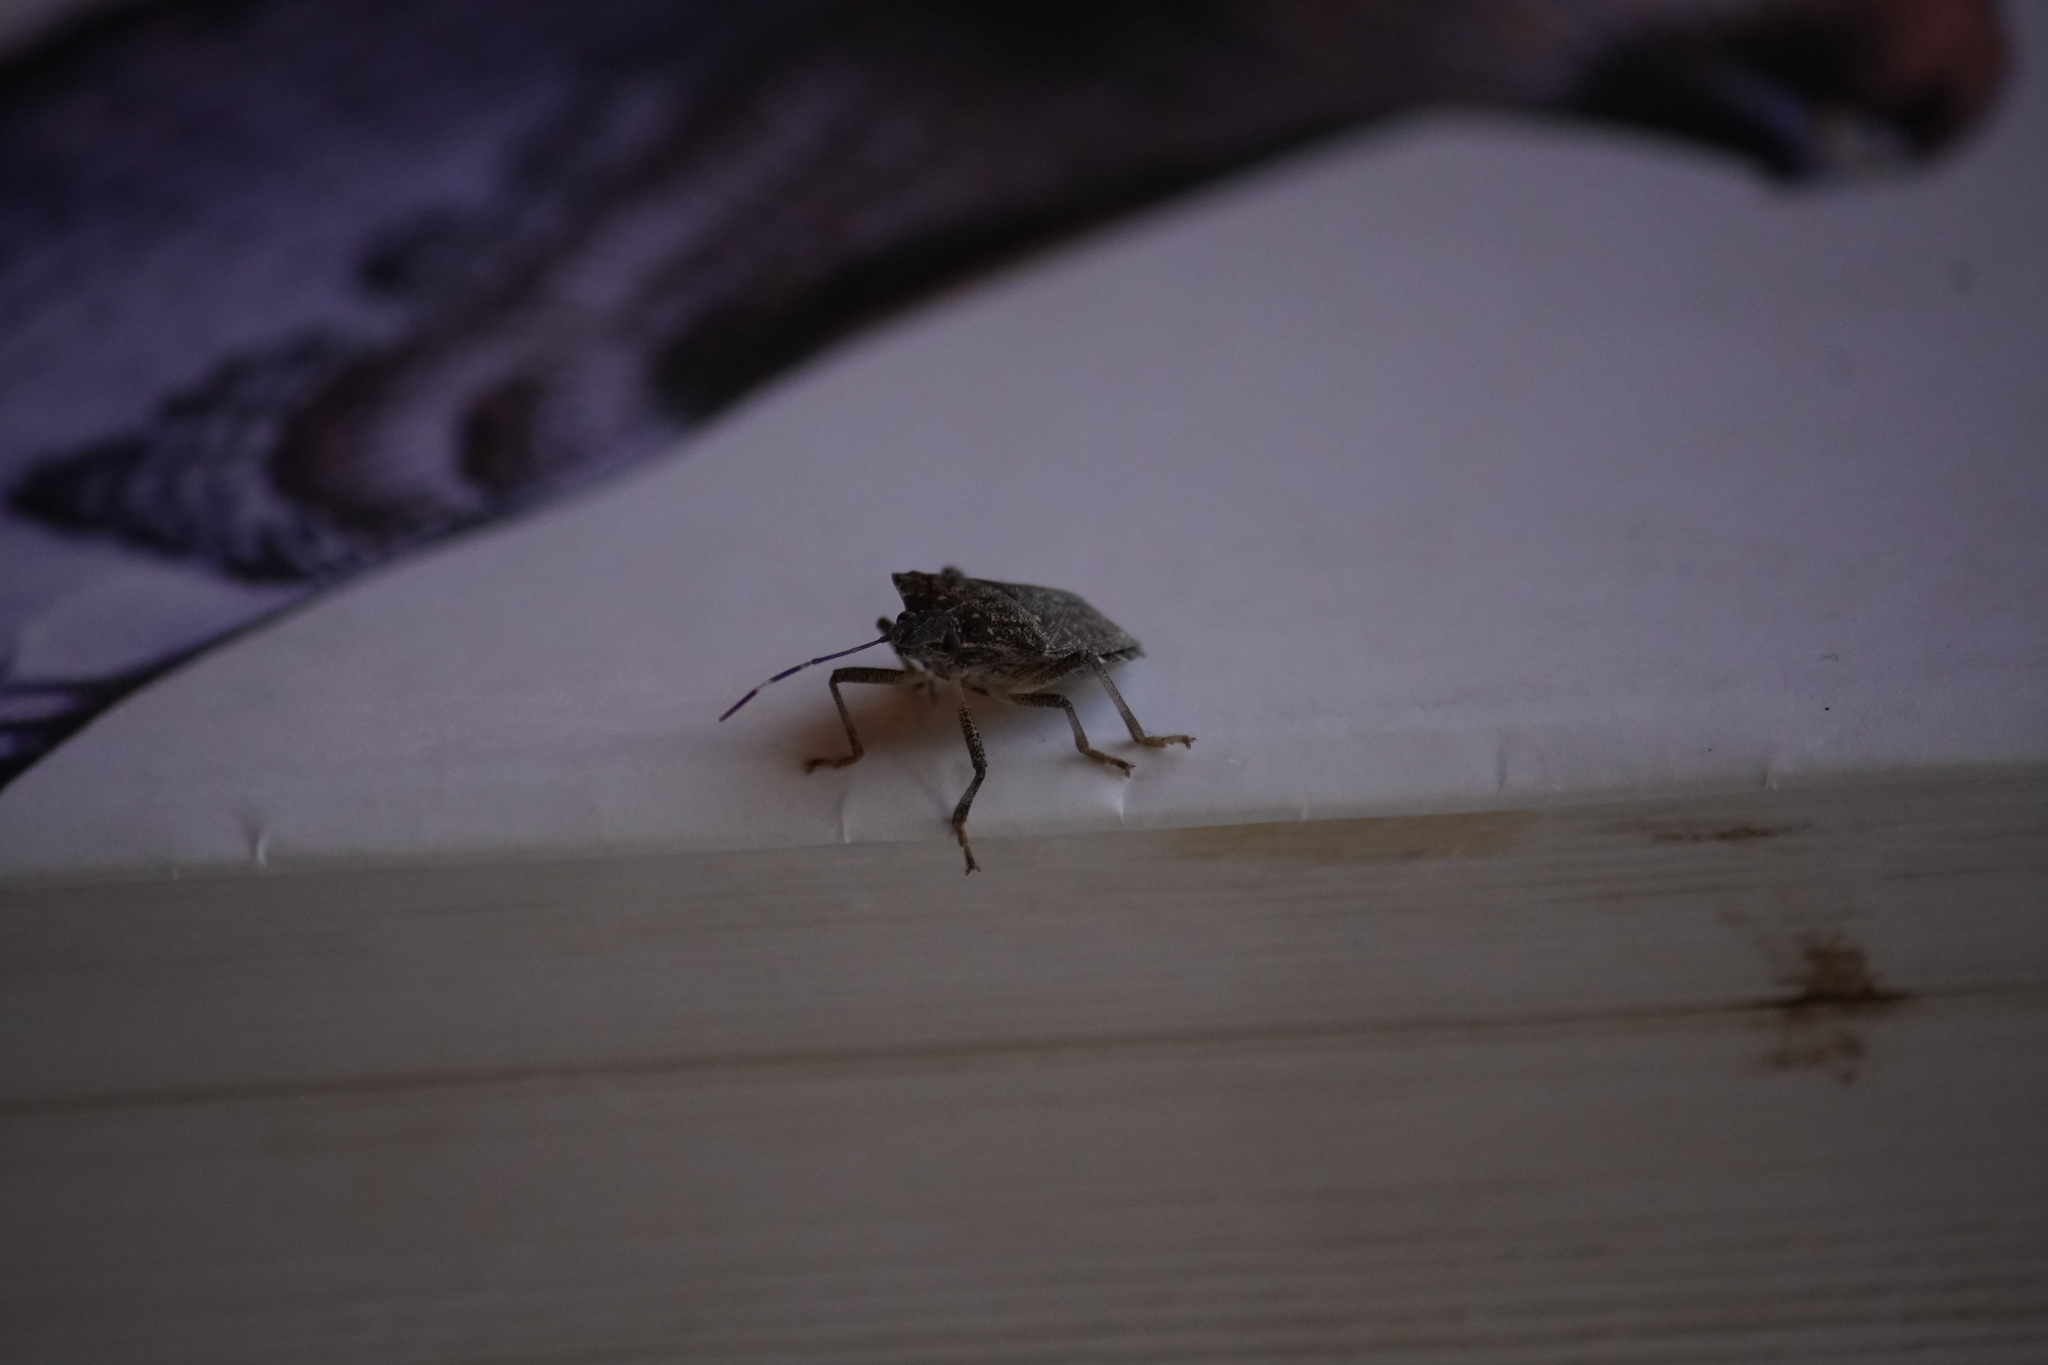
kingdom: Animalia
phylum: Arthropoda
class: Insecta
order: Hemiptera
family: Pentatomidae
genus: Halyomorpha
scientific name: Halyomorpha halys
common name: Brown marmorated stink bug
